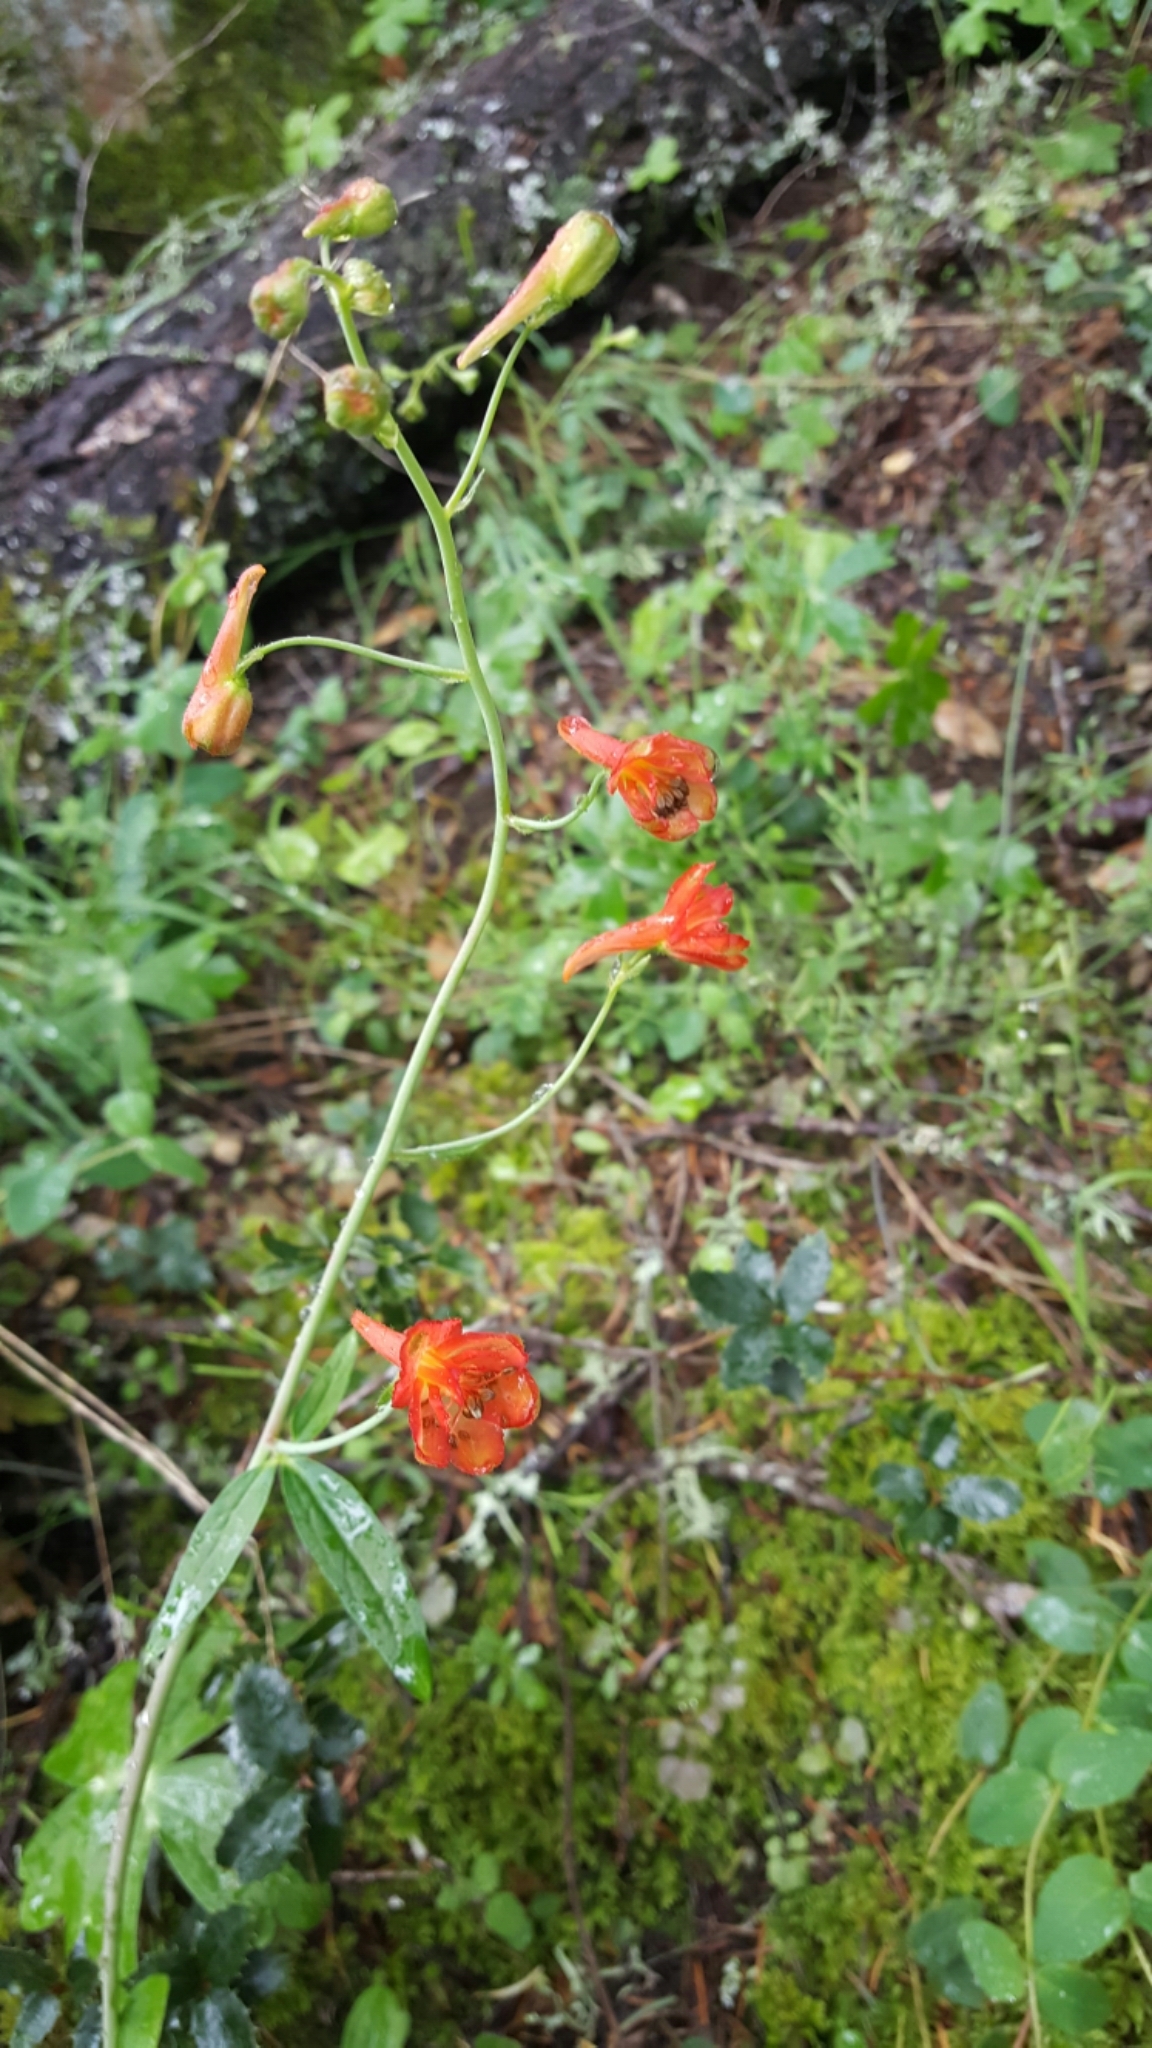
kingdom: Plantae
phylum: Tracheophyta
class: Magnoliopsida
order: Ranunculales
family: Ranunculaceae
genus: Delphinium
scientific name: Delphinium nudicaule
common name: Red larkspur
